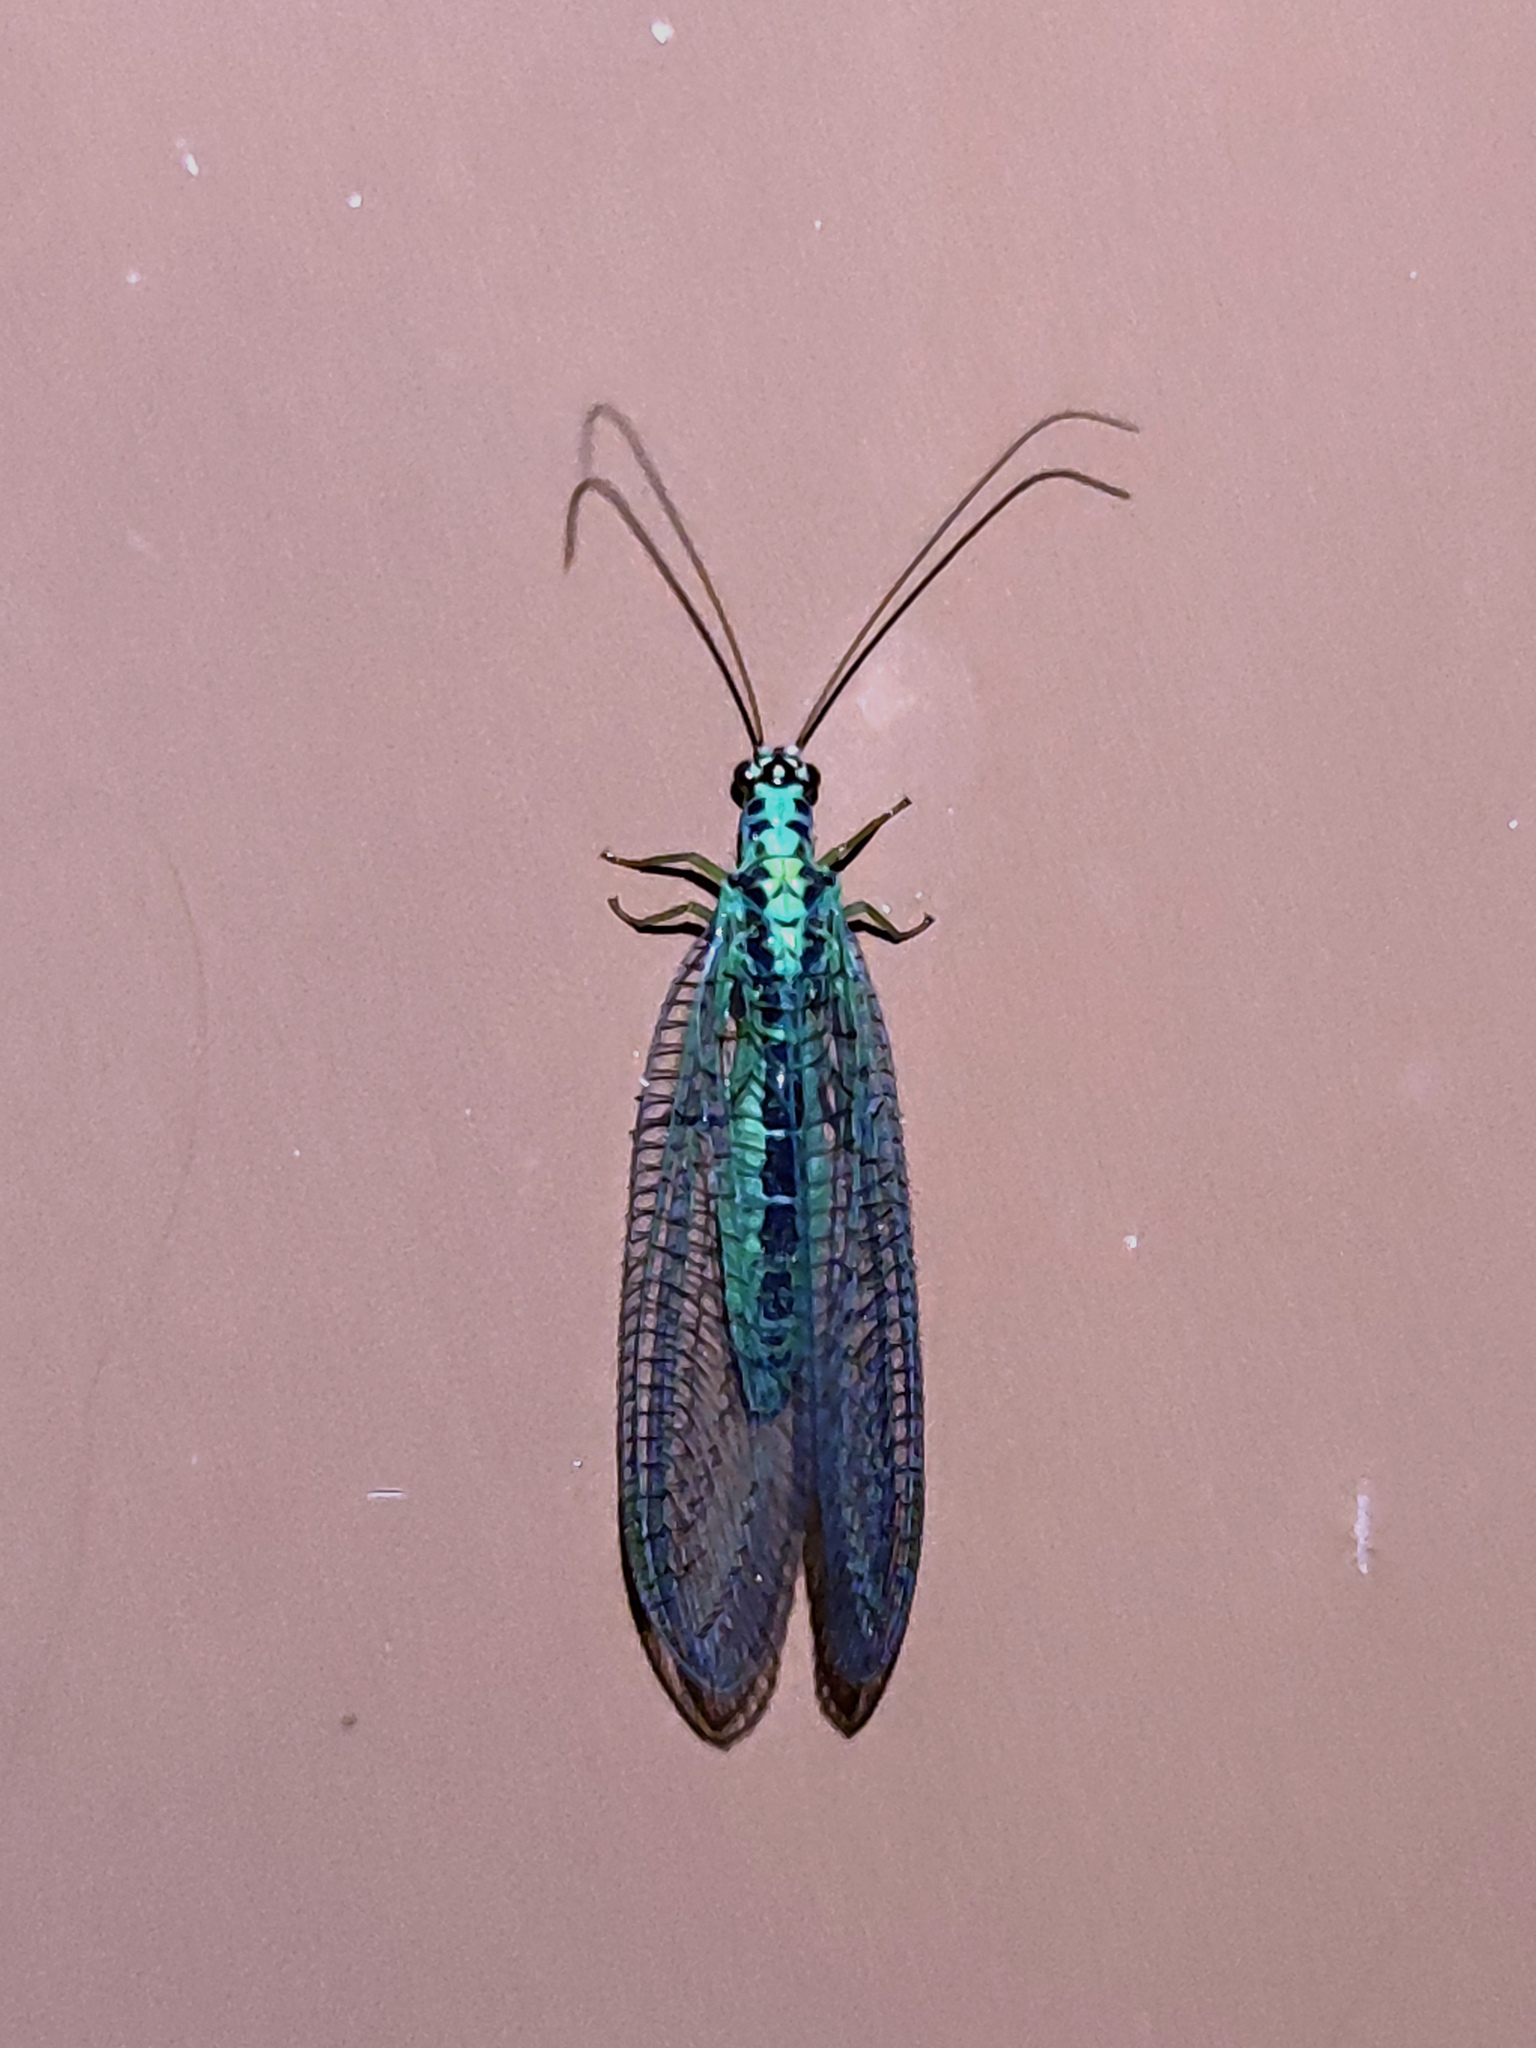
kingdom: Animalia
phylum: Arthropoda
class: Insecta
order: Neuroptera
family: Chrysopidae
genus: Chrysopa
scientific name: Chrysopa perla
